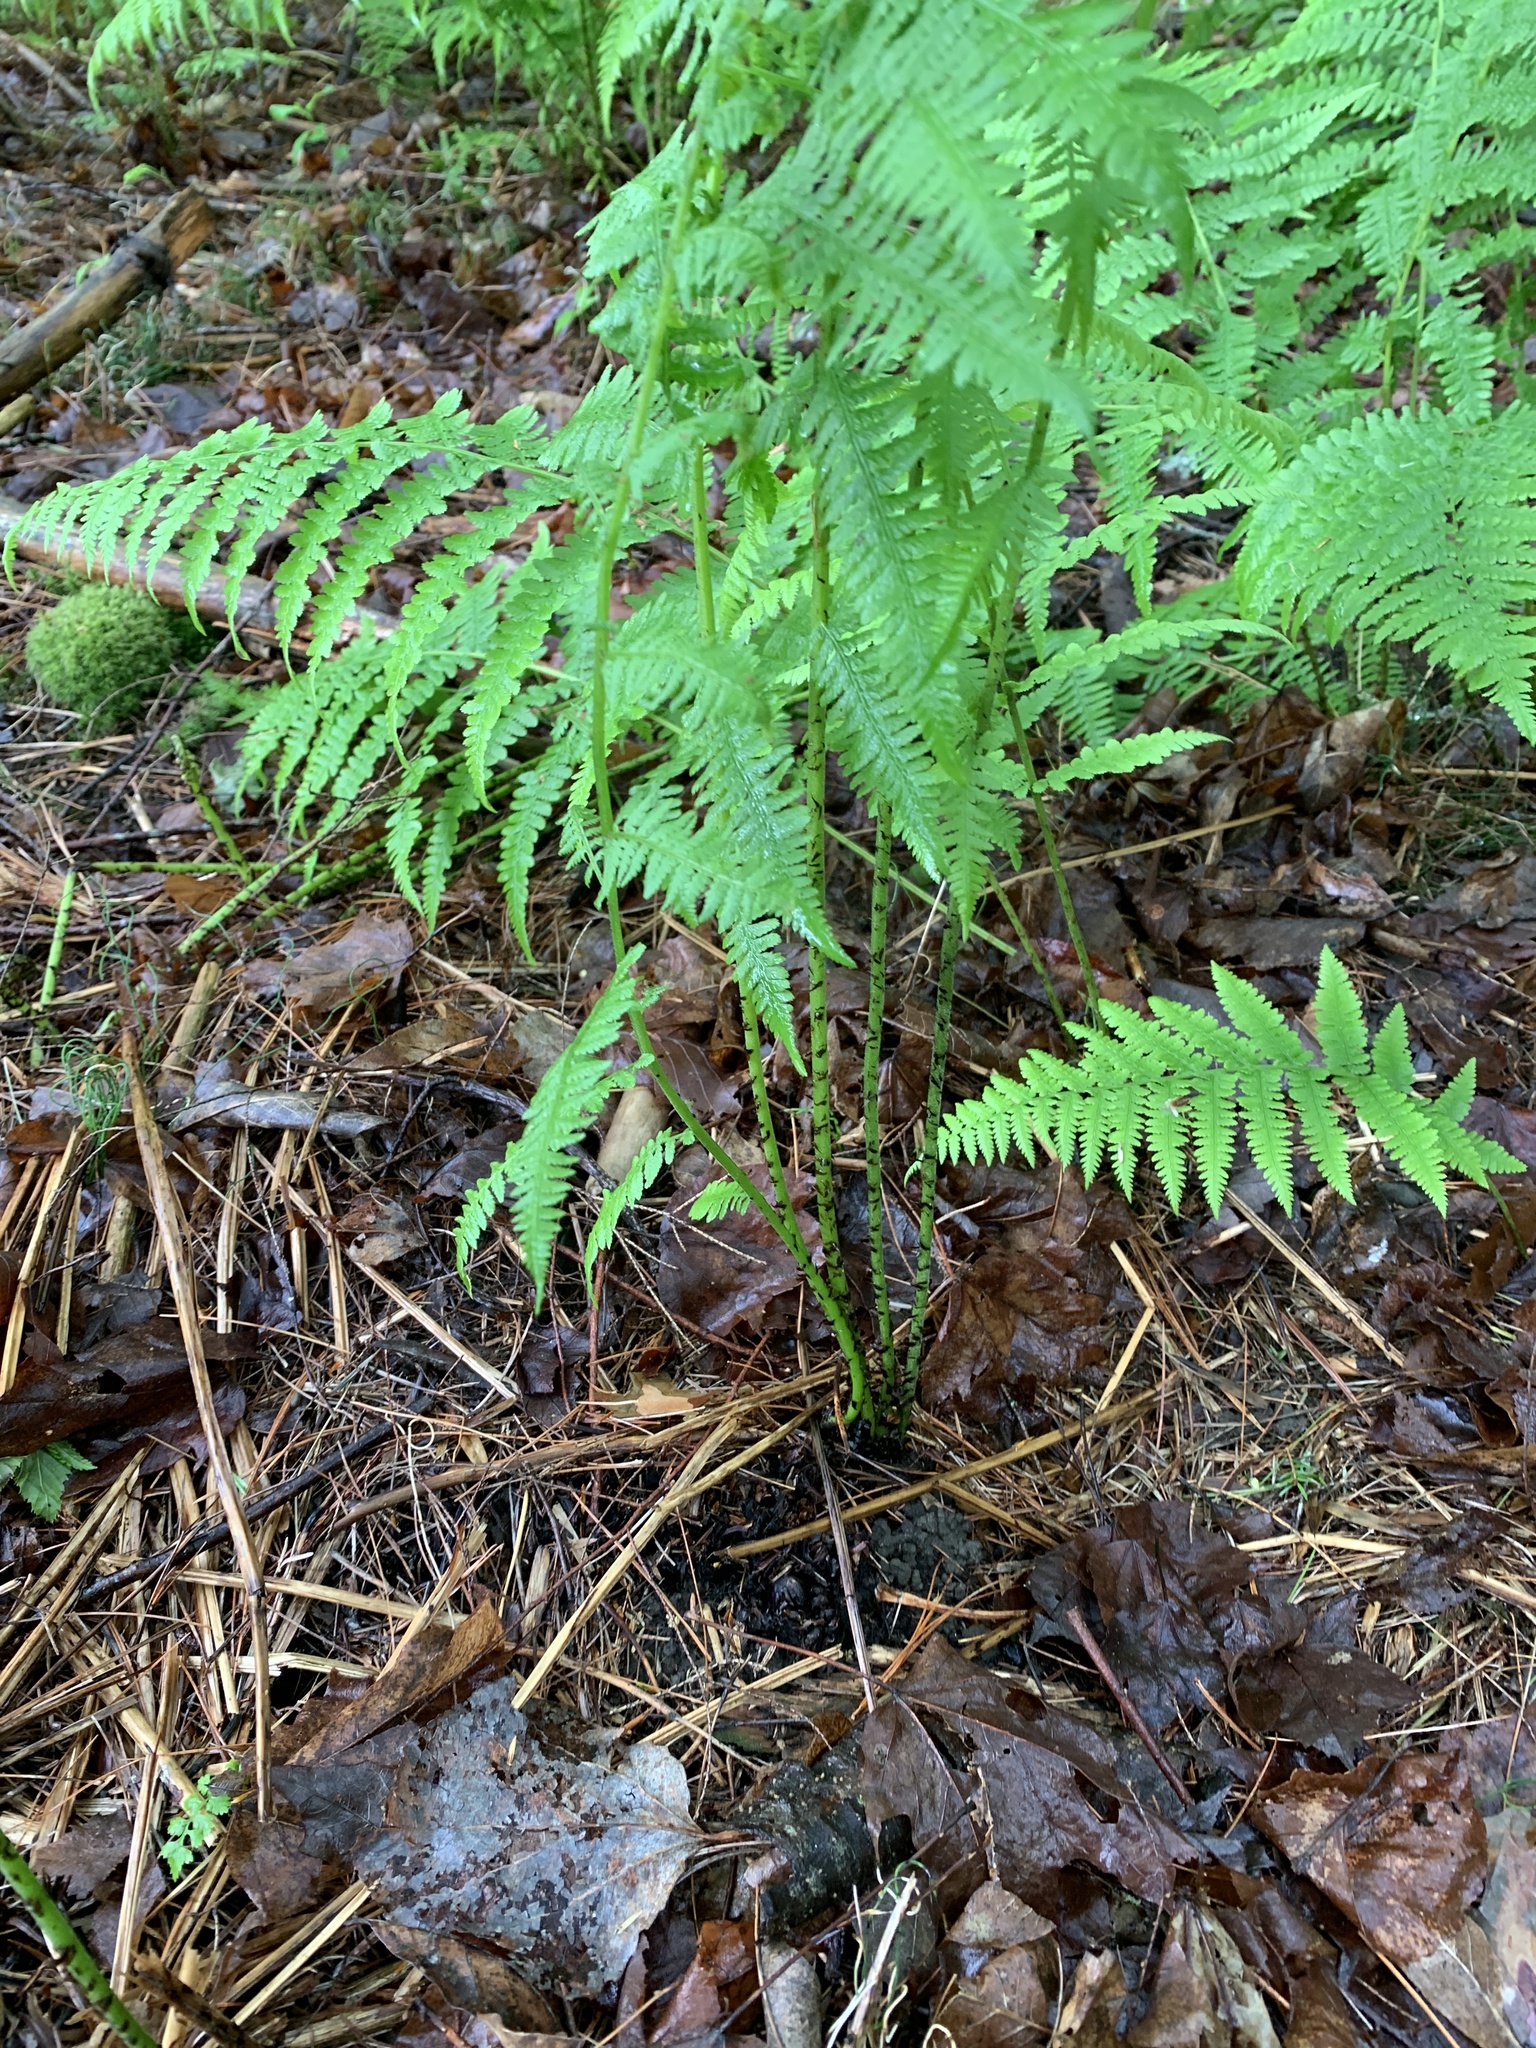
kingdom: Plantae
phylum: Tracheophyta
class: Polypodiopsida
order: Polypodiales
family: Athyriaceae
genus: Athyrium
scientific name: Athyrium angustum
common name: Northern lady fern
